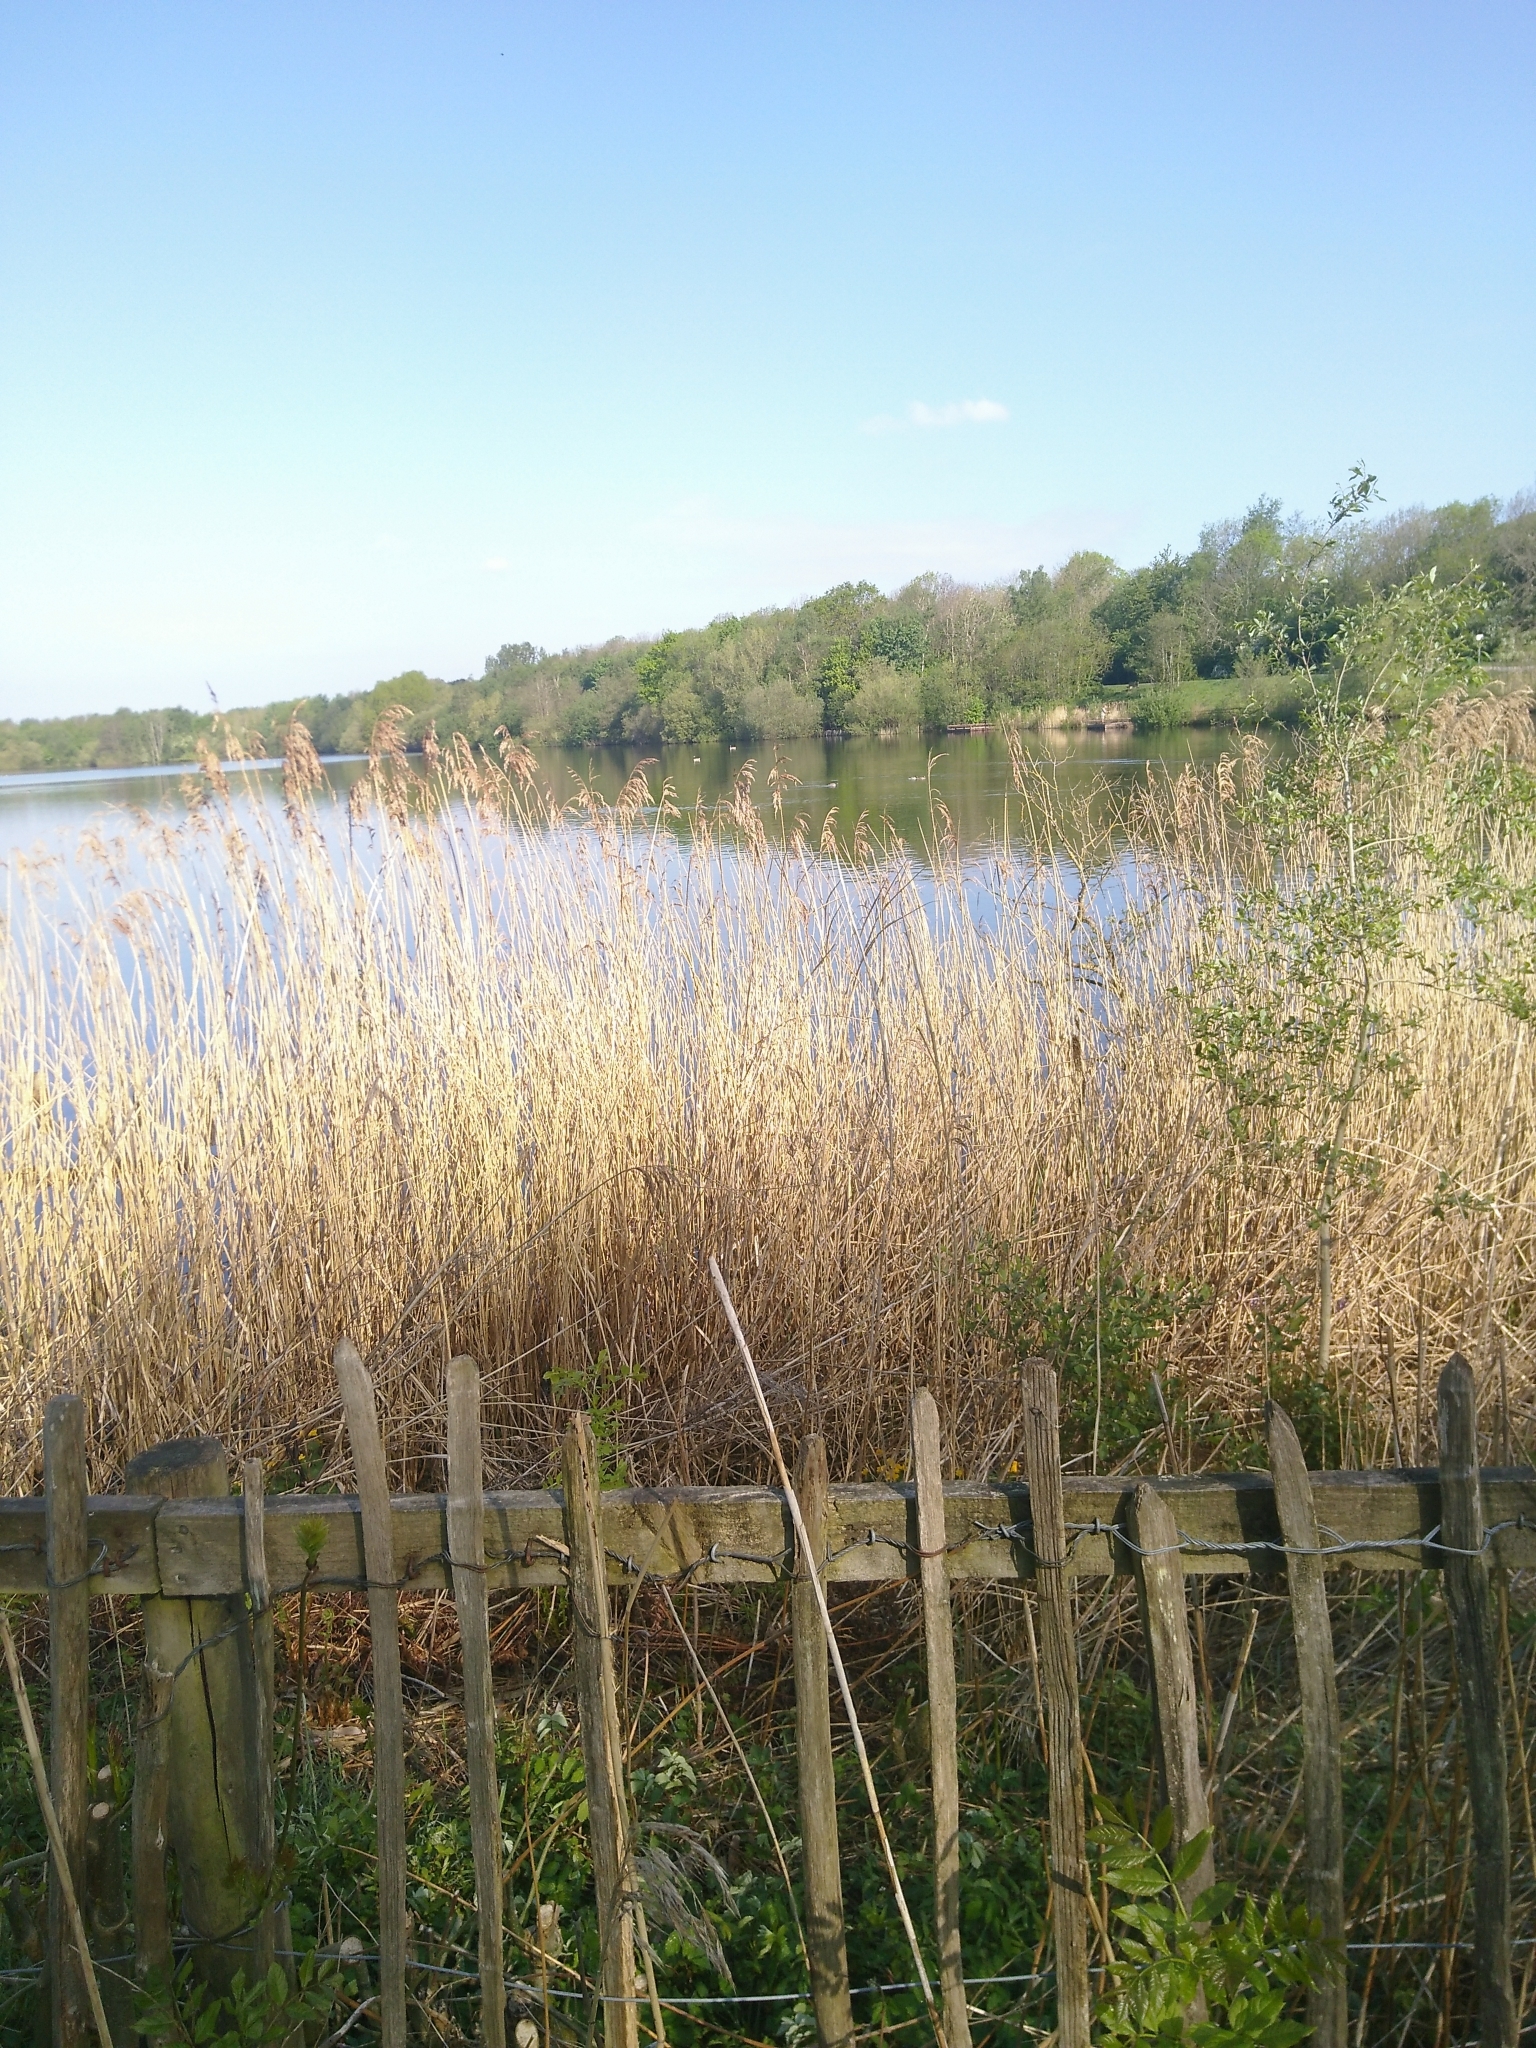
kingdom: Plantae
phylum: Tracheophyta
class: Liliopsida
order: Poales
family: Poaceae
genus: Phragmites
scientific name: Phragmites australis
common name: Common reed
